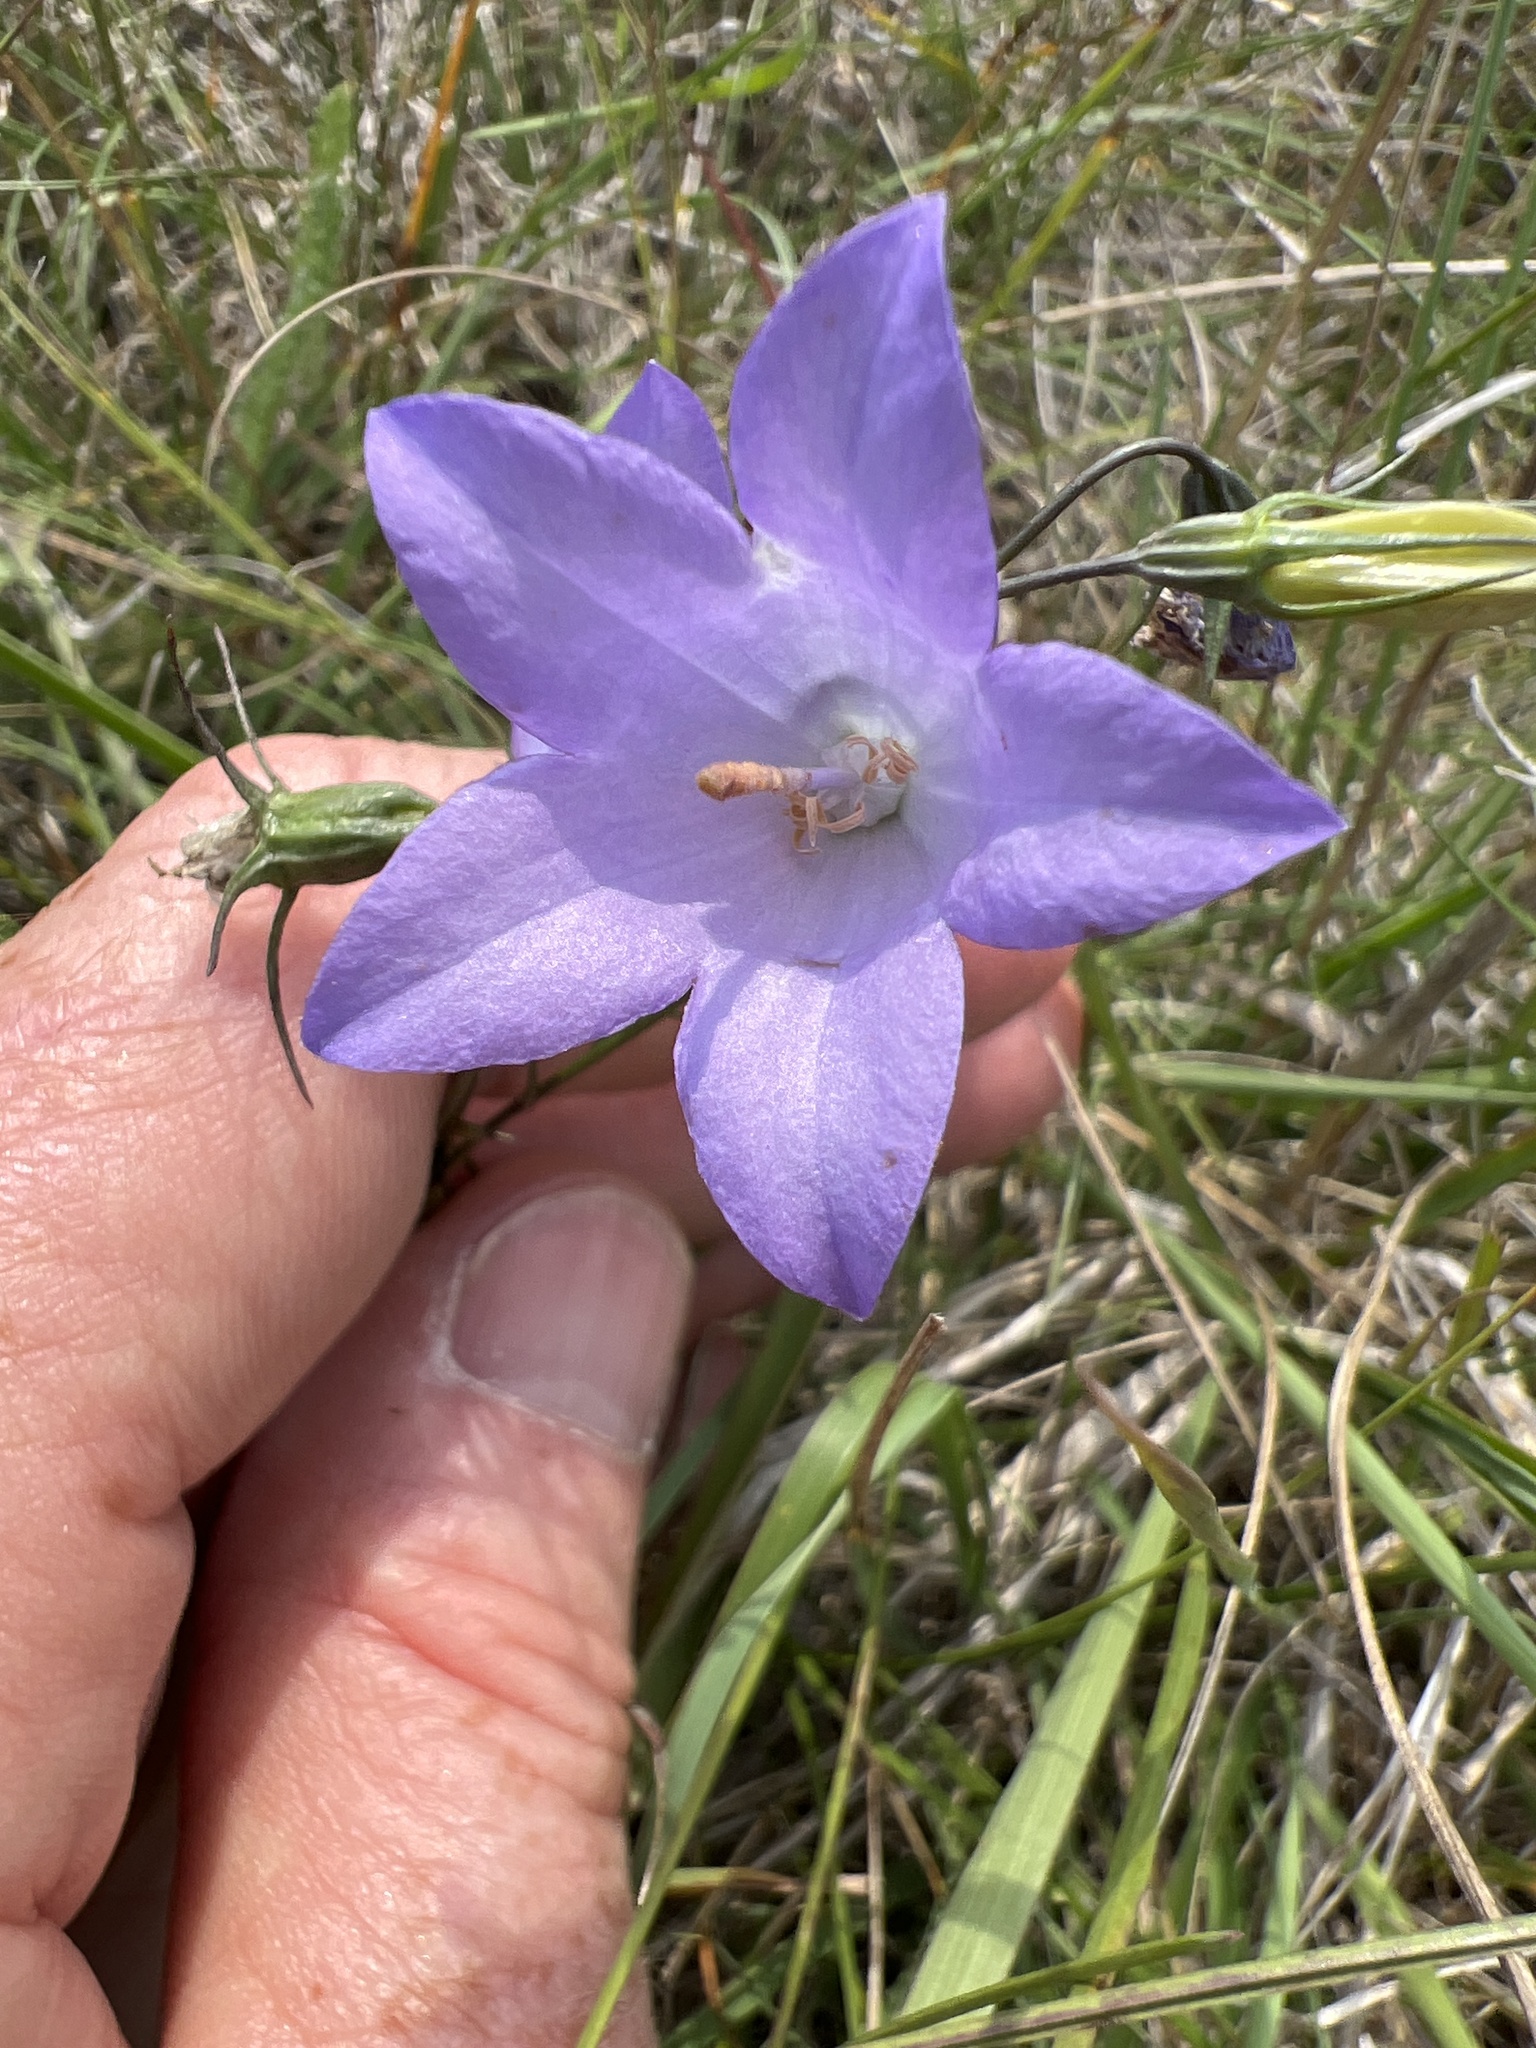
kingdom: Plantae
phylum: Tracheophyta
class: Magnoliopsida
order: Asterales
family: Campanulaceae
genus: Campanula
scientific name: Campanula petiolata
